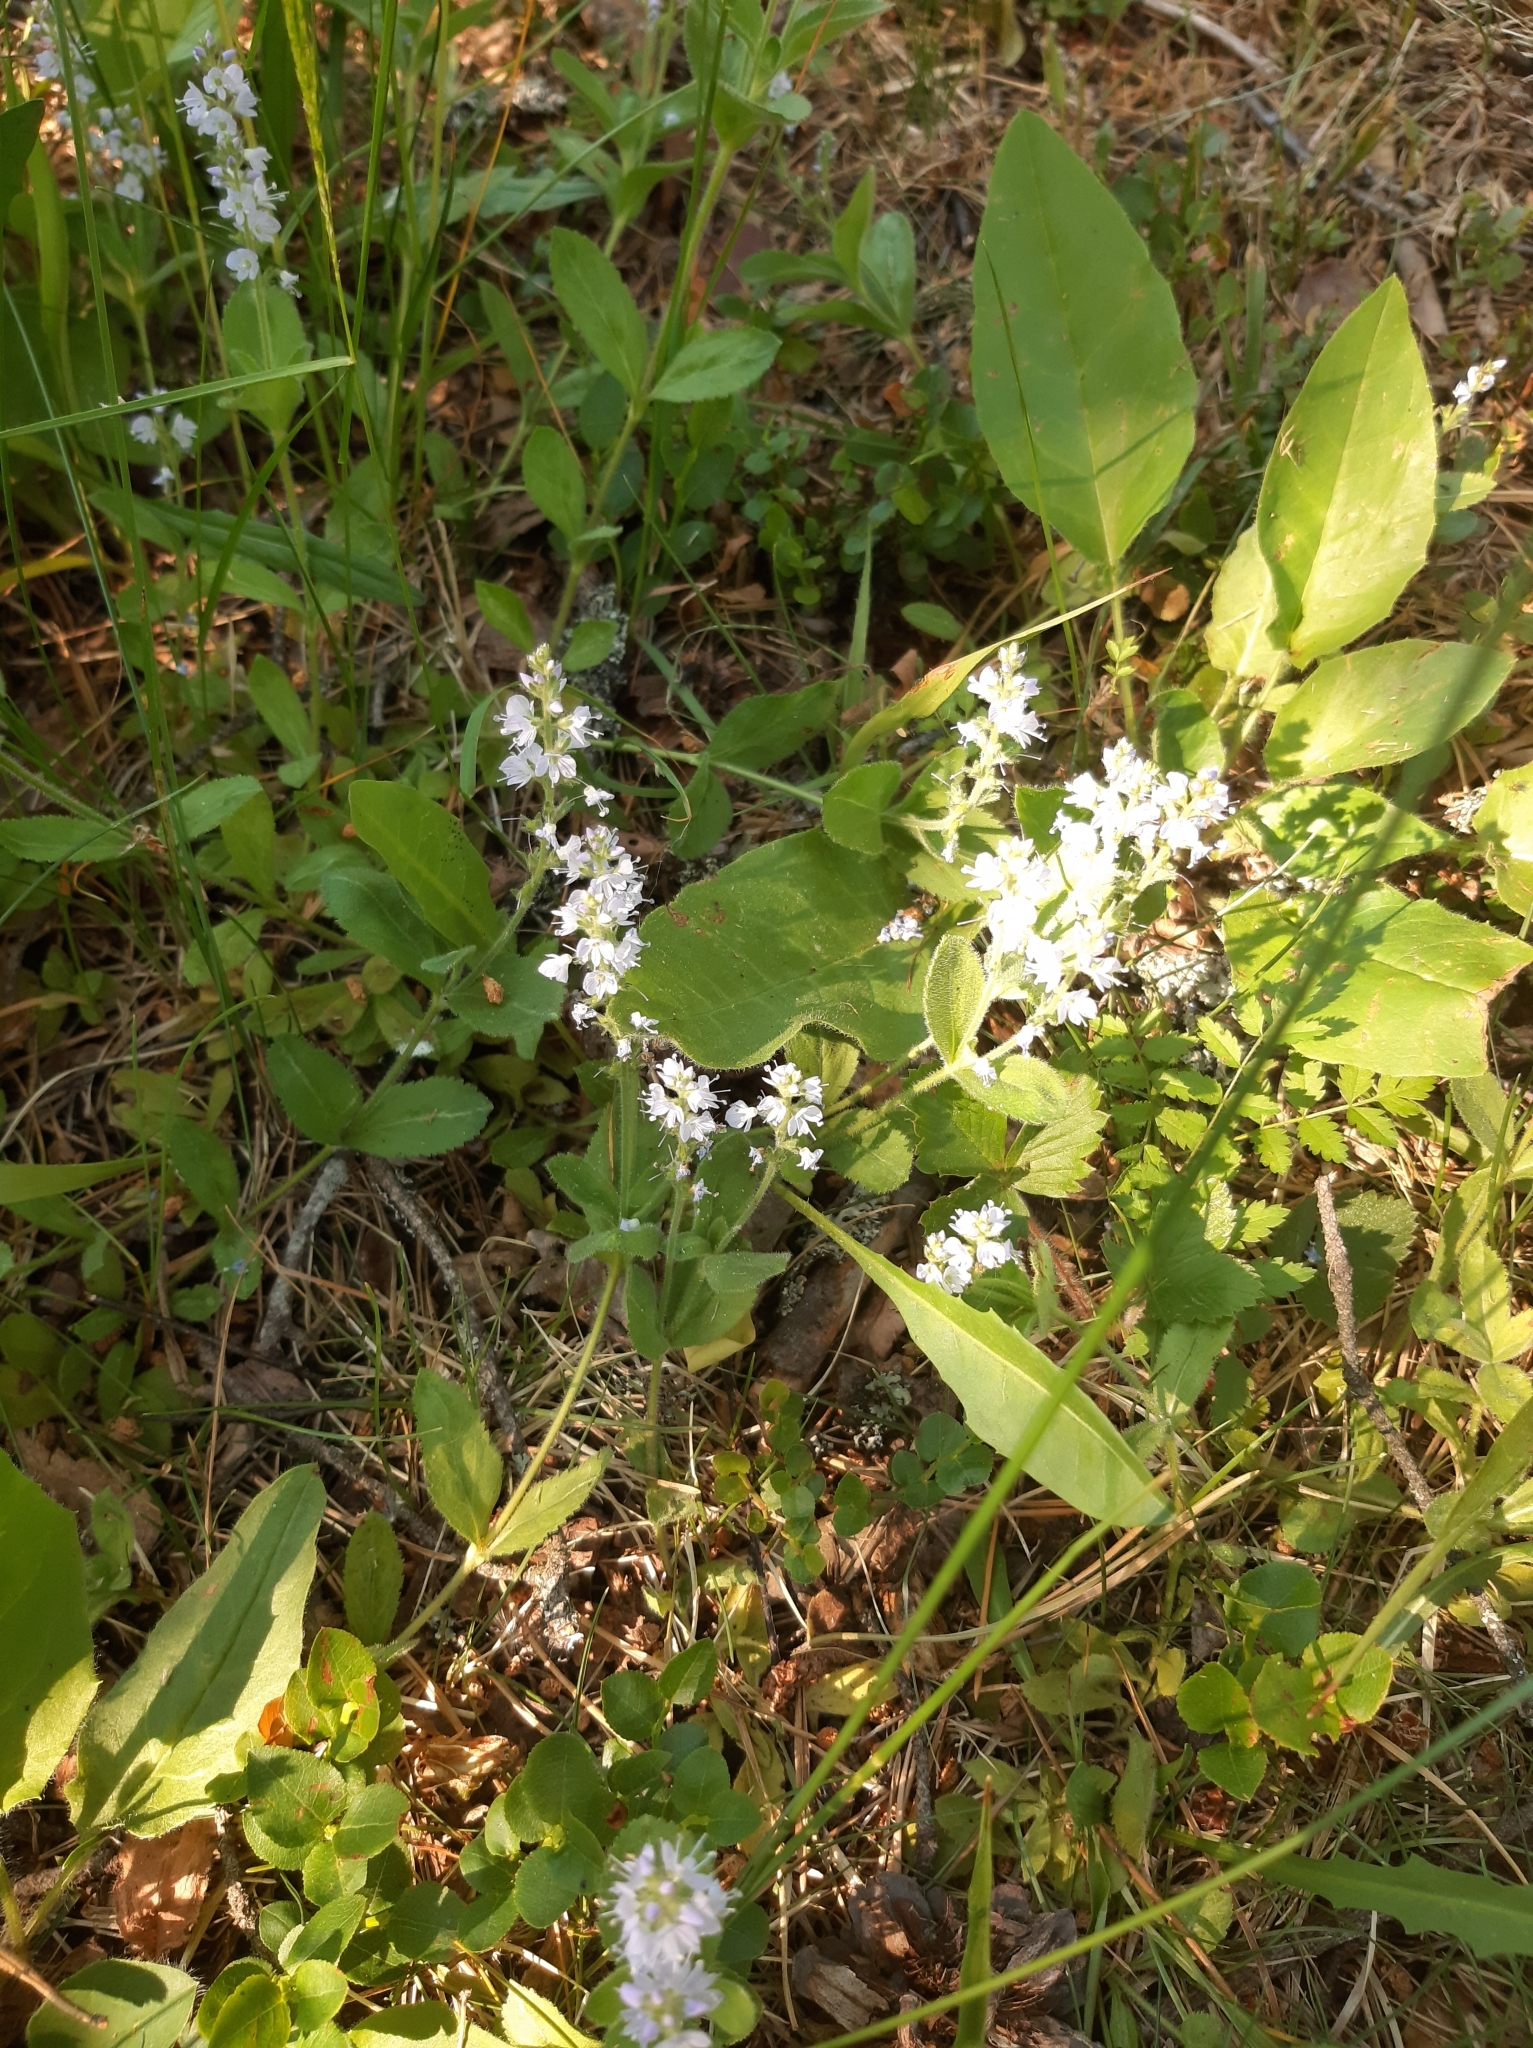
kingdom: Plantae
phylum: Tracheophyta
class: Magnoliopsida
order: Lamiales
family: Plantaginaceae
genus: Veronica
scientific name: Veronica officinalis
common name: Common speedwell
